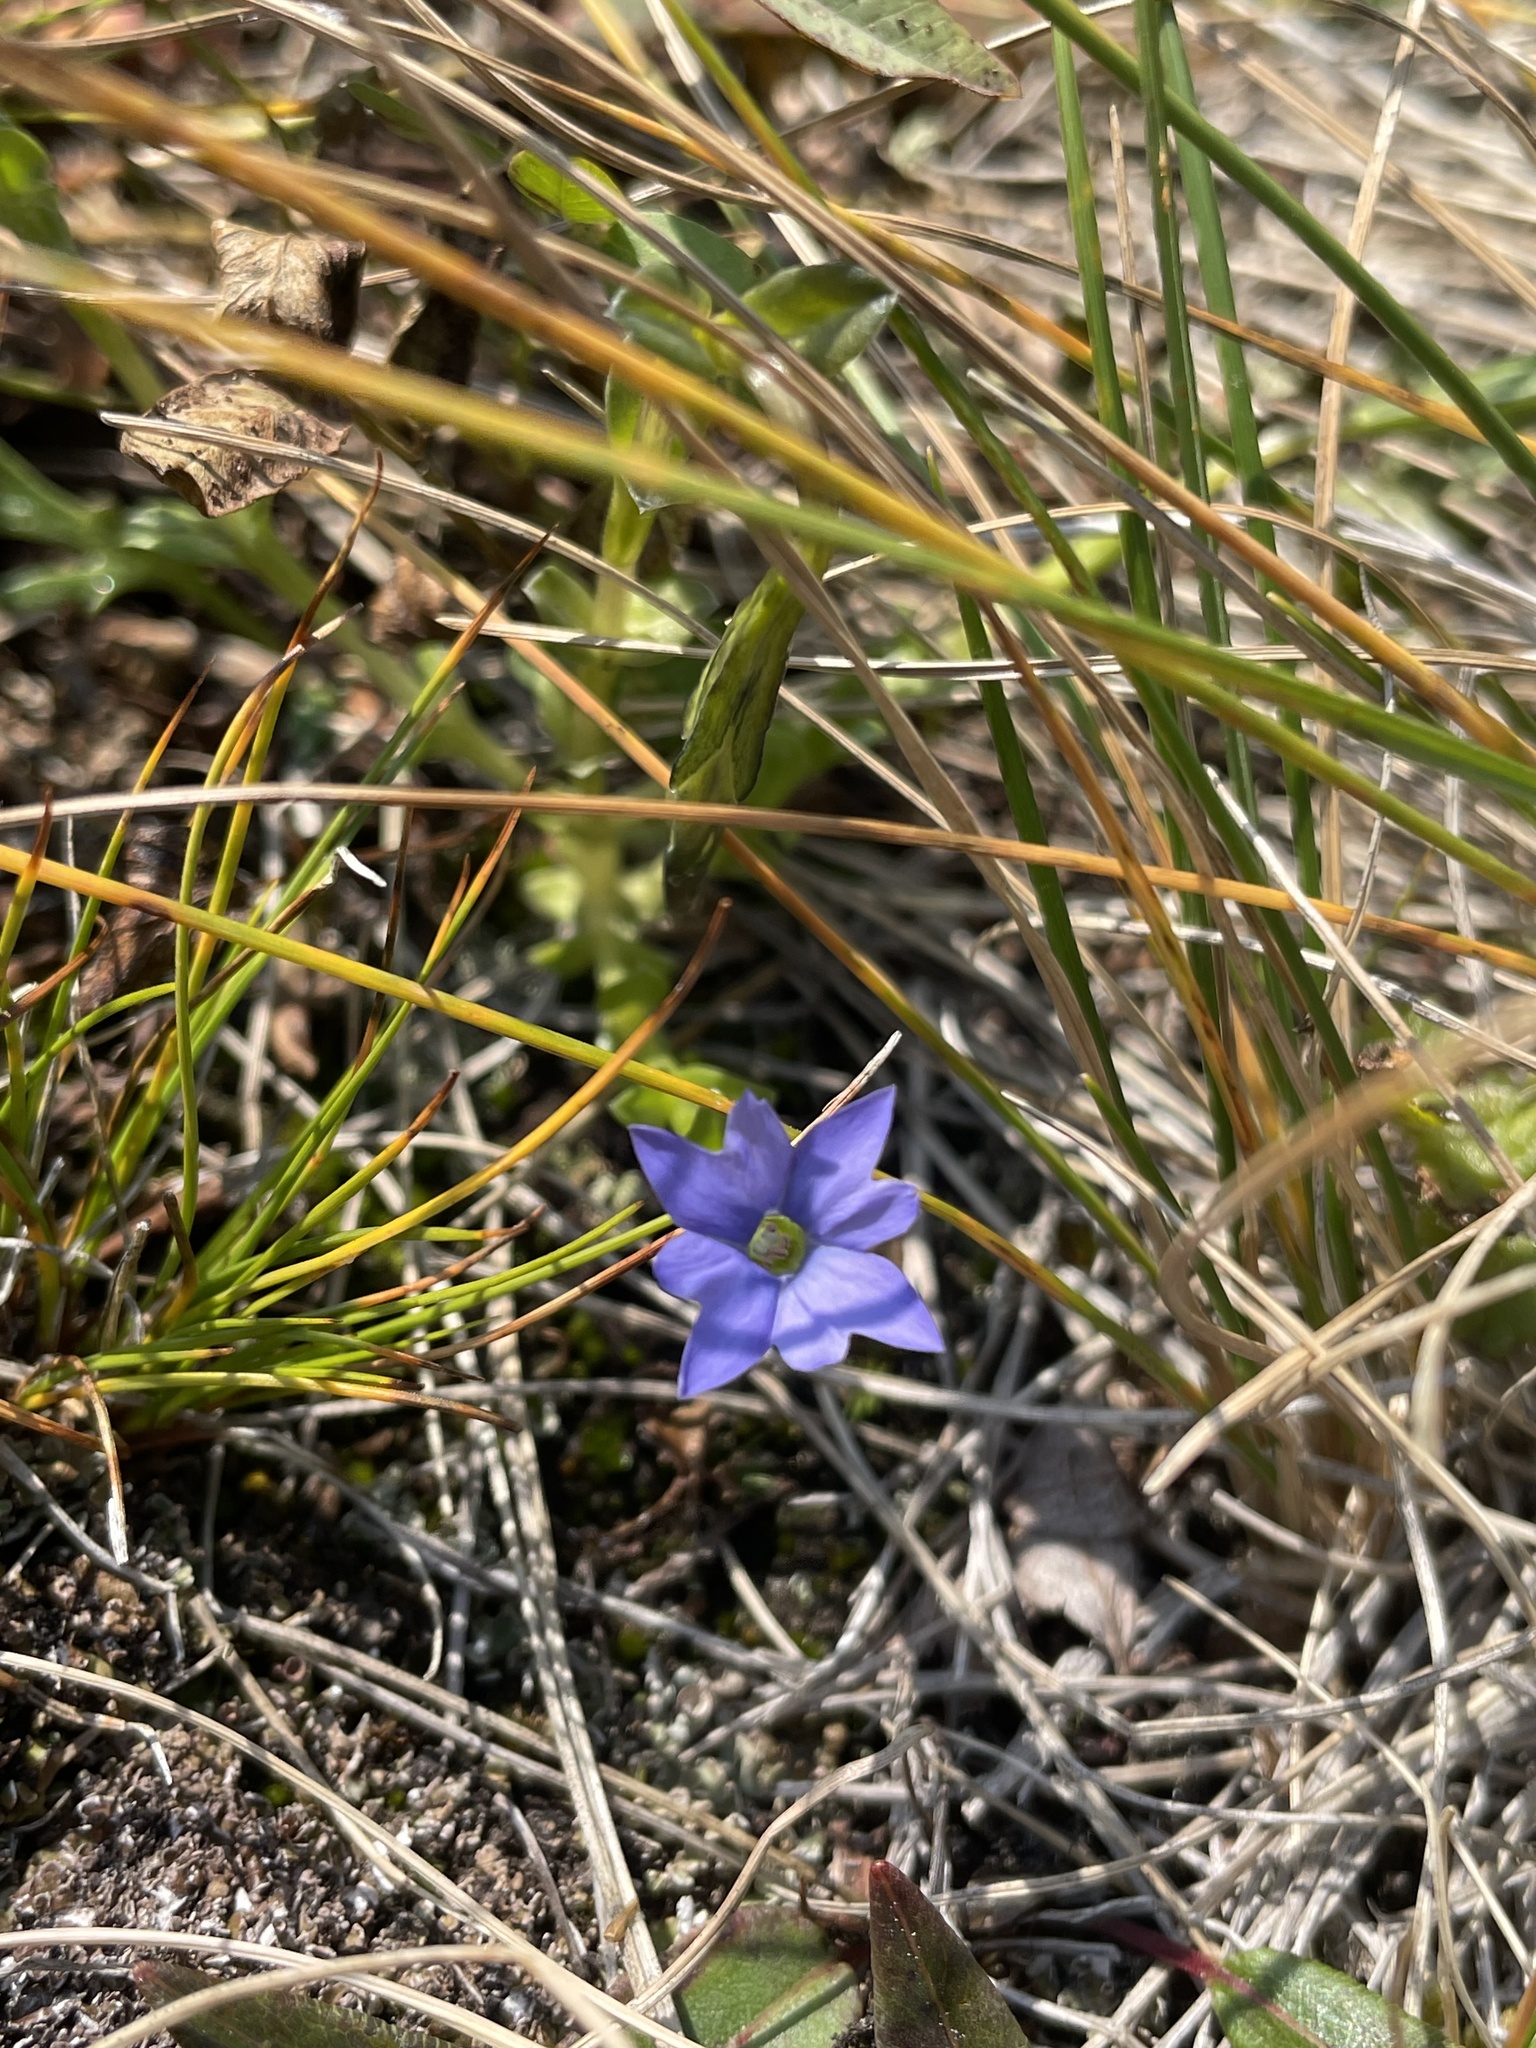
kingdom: Plantae
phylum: Tracheophyta
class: Magnoliopsida
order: Gentianales
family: Gentianaceae
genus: Gentiana
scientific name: Gentiana prostrata
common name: Moss gentian
